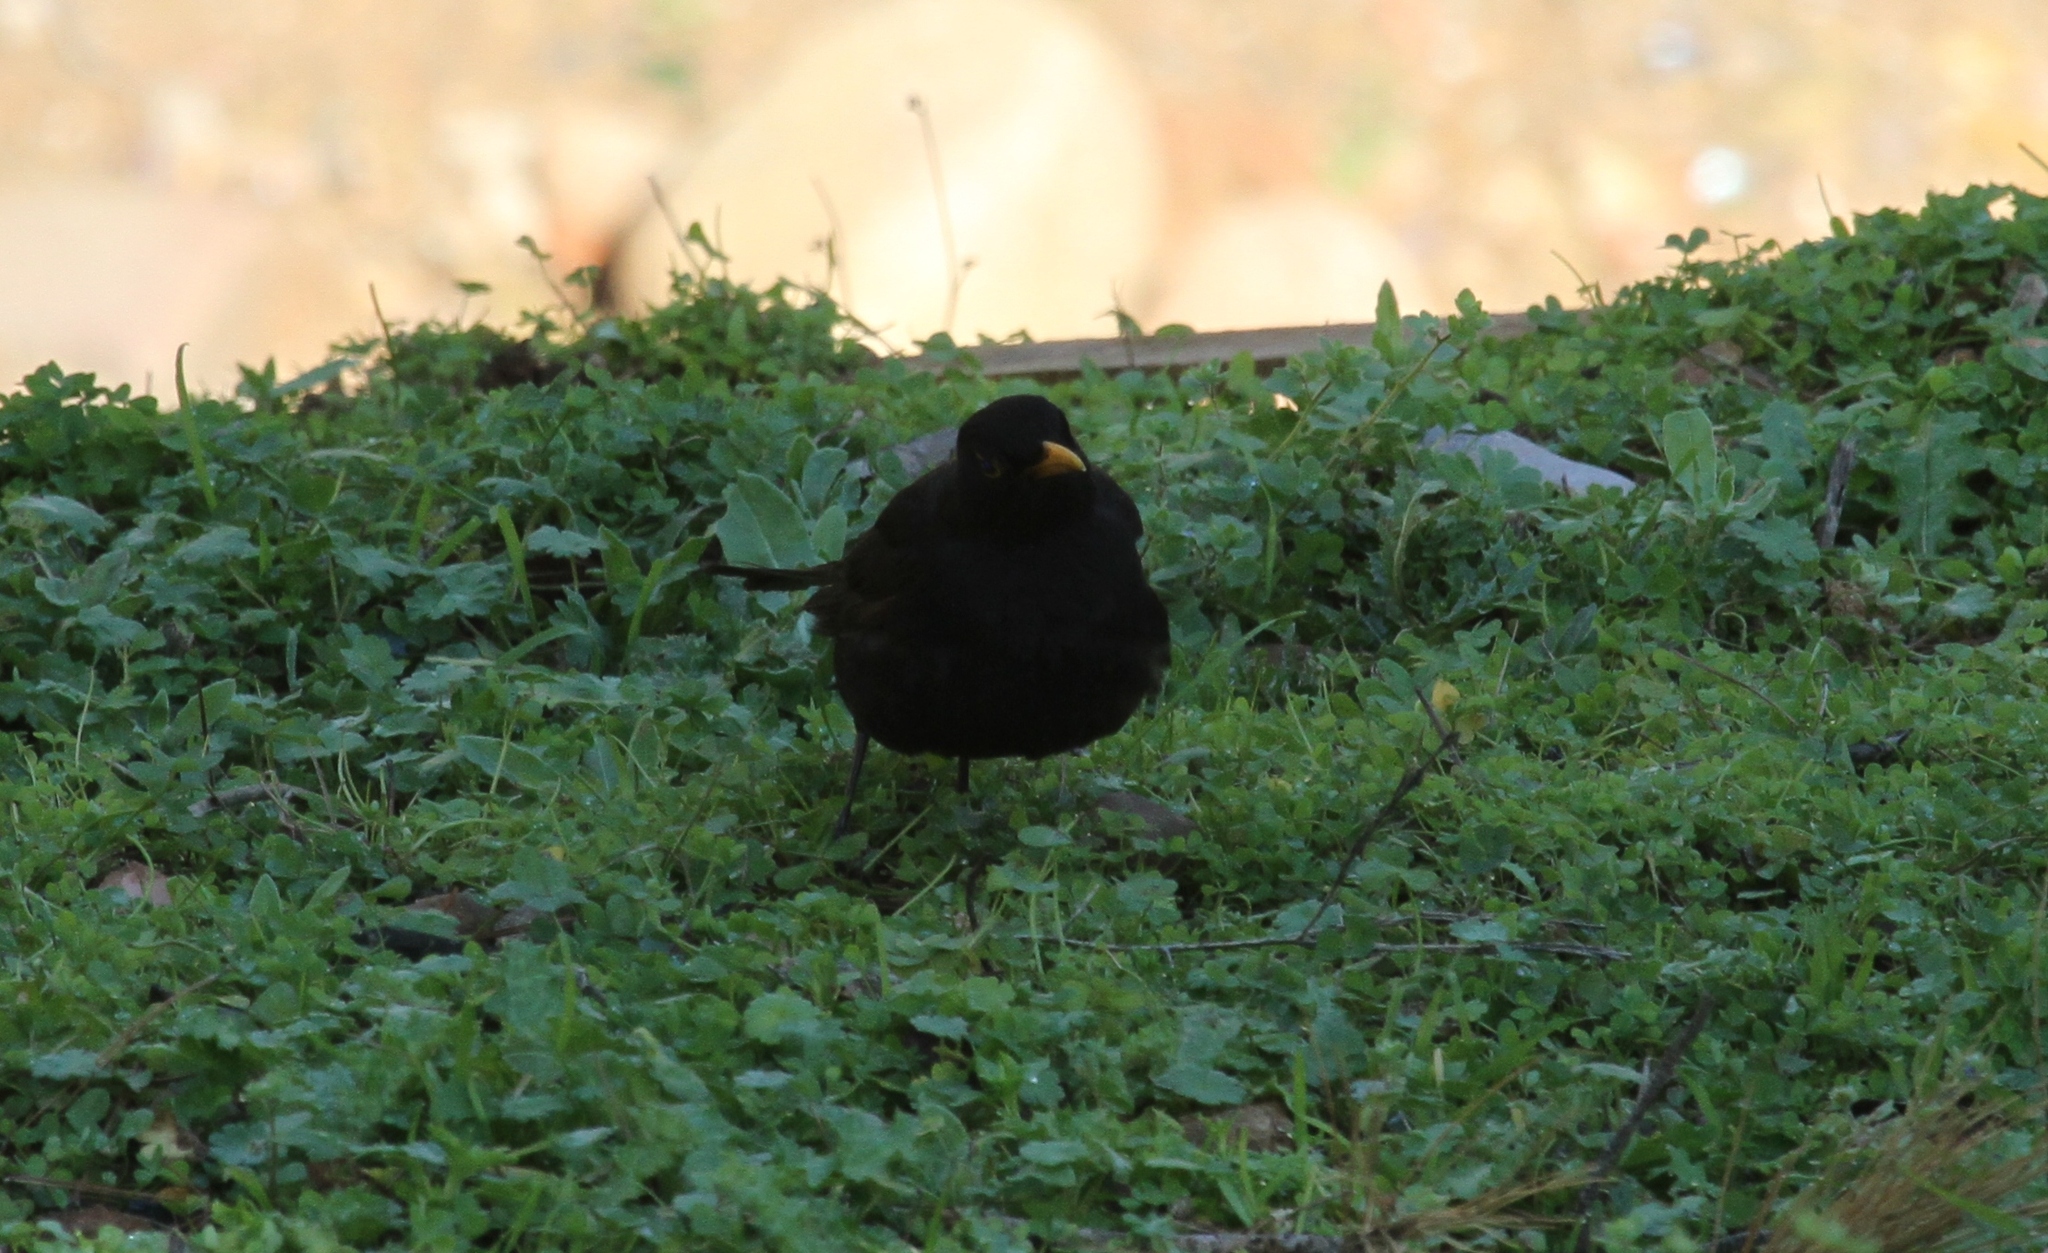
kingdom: Animalia
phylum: Chordata
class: Aves
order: Passeriformes
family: Turdidae
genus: Turdus
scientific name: Turdus merula
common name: Common blackbird
